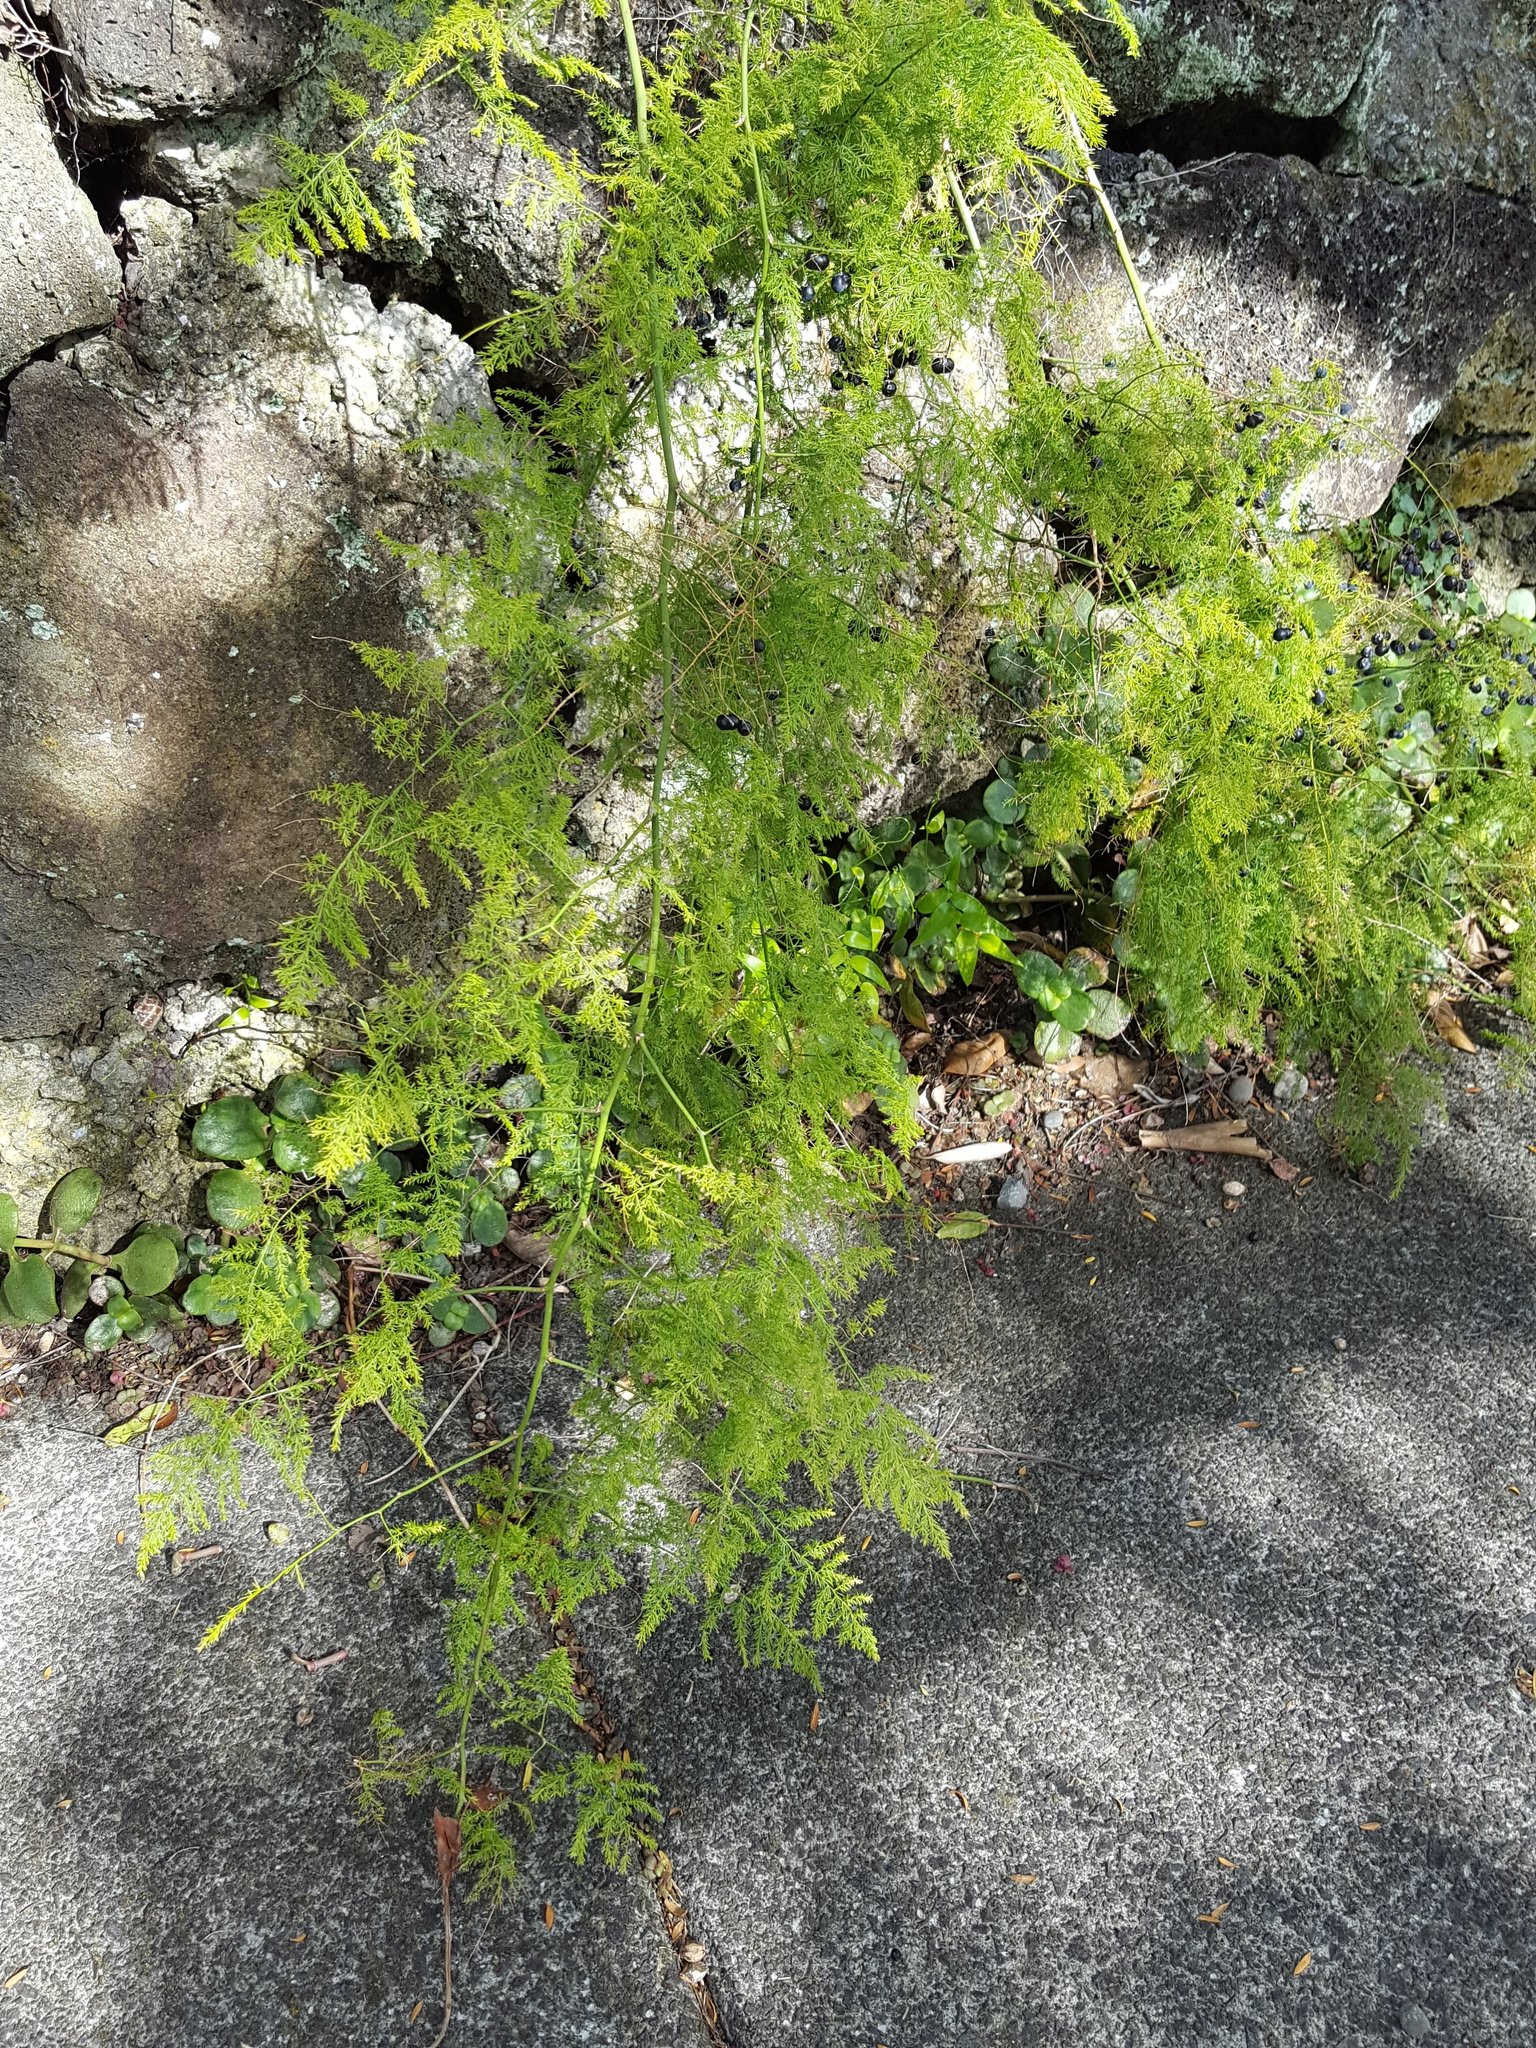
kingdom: Plantae
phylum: Tracheophyta
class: Liliopsida
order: Asparagales
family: Asparagaceae
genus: Asparagus
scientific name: Asparagus setaceus
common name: Common asparagus fern
